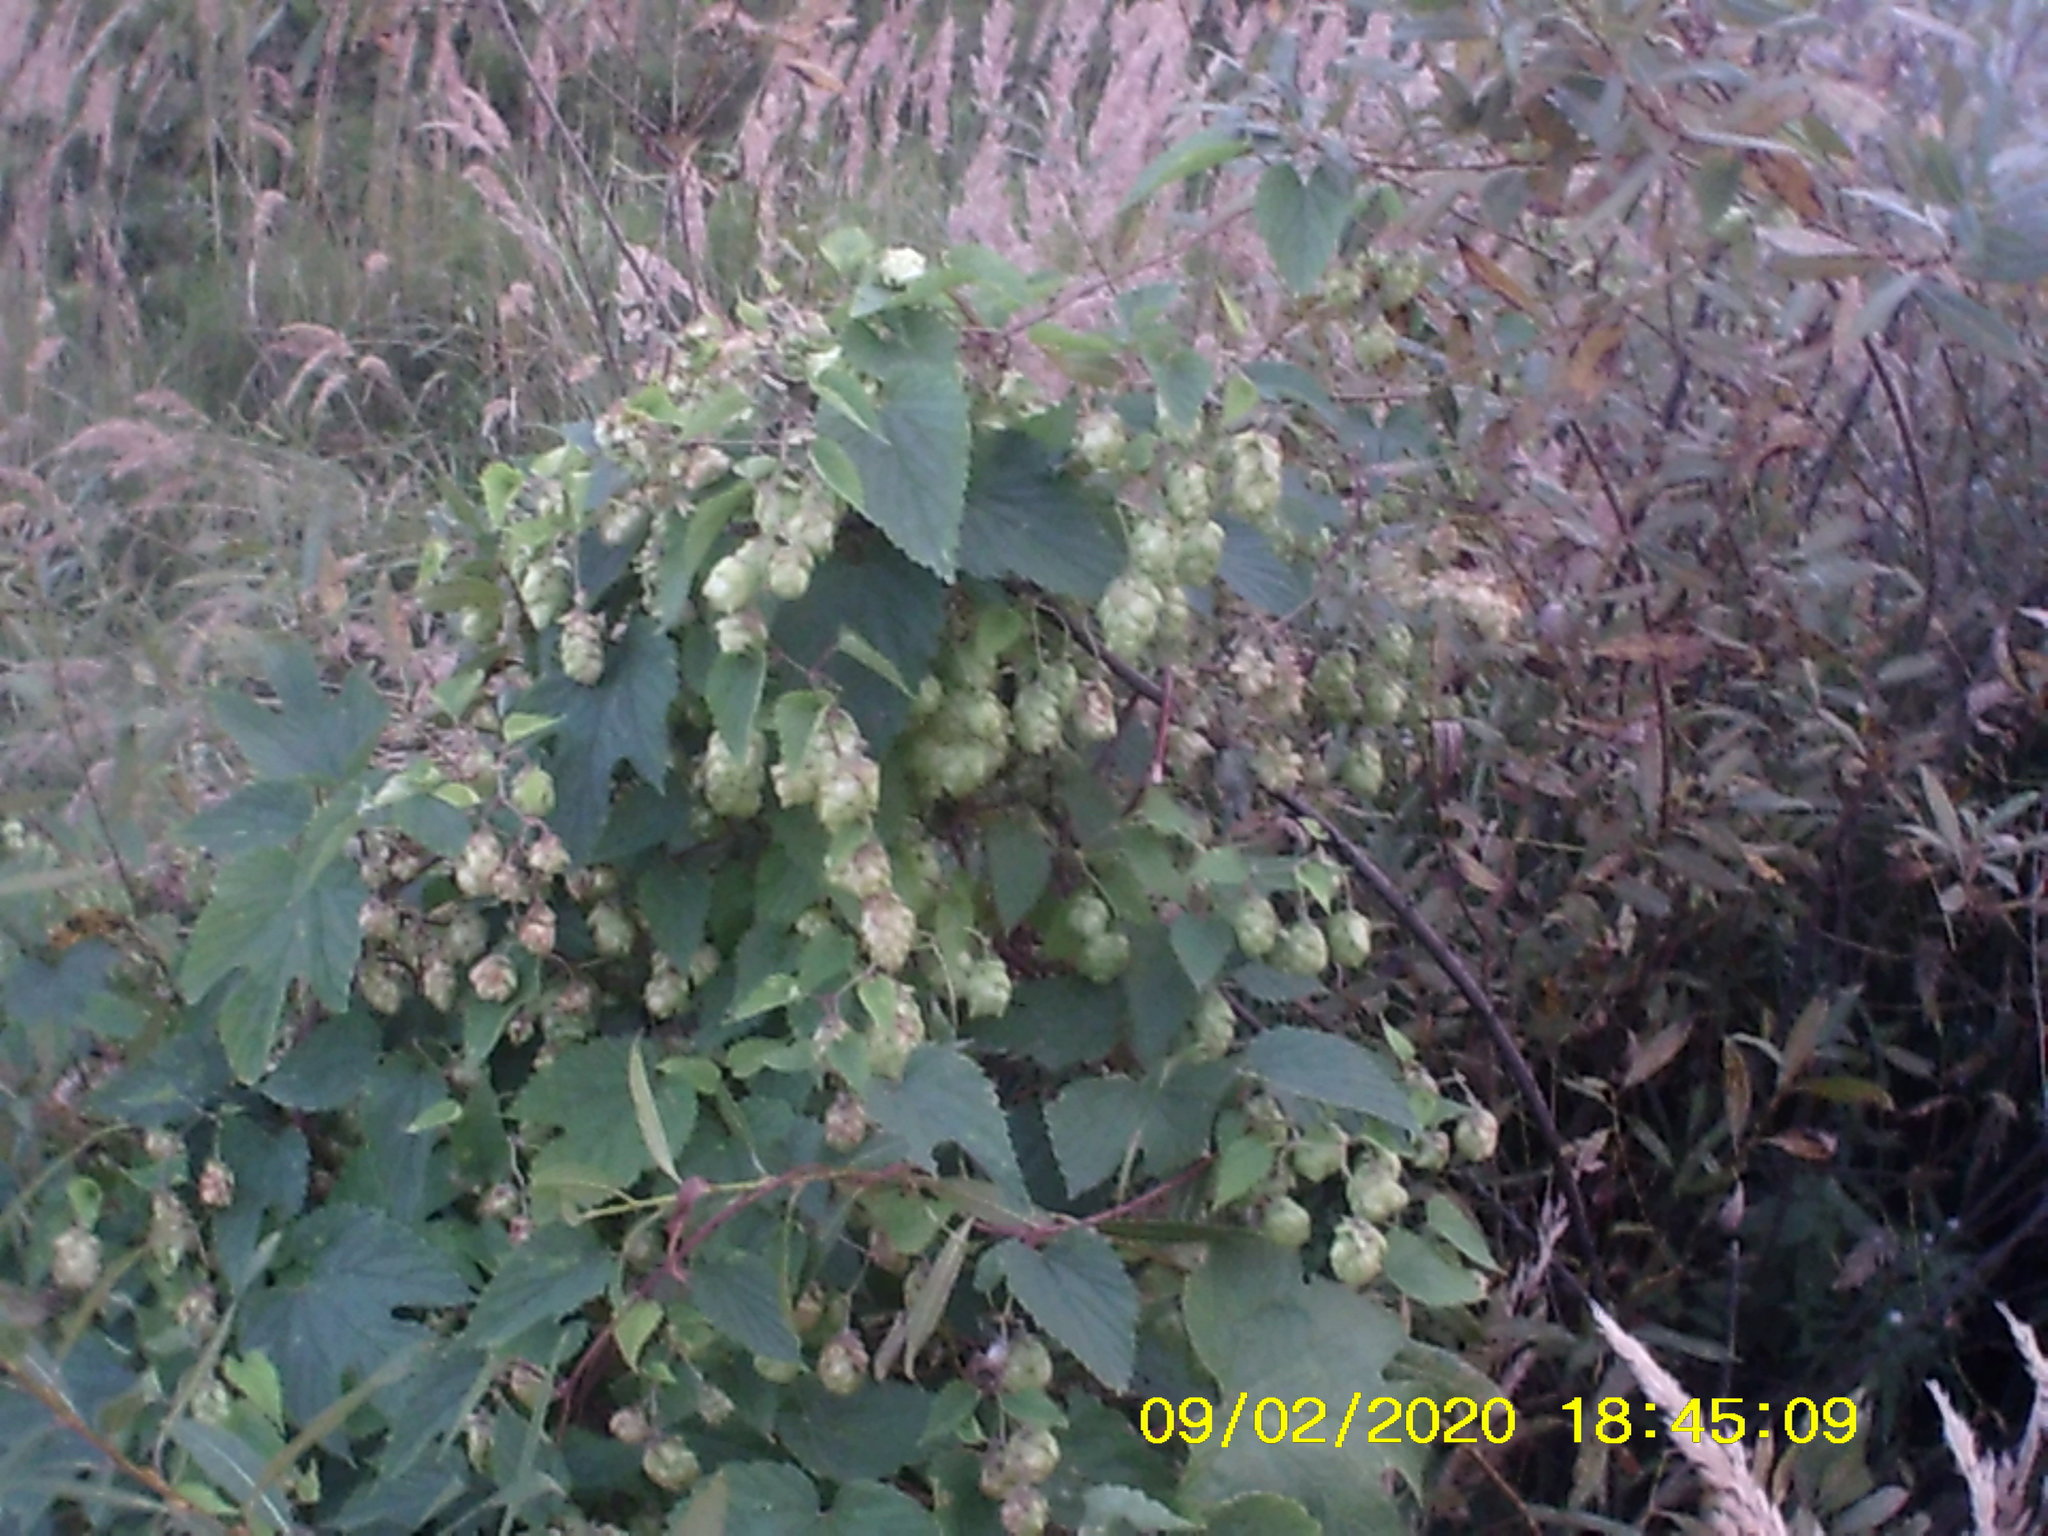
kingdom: Plantae
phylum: Tracheophyta
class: Magnoliopsida
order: Rosales
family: Cannabaceae
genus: Humulus
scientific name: Humulus lupulus
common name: Hop
